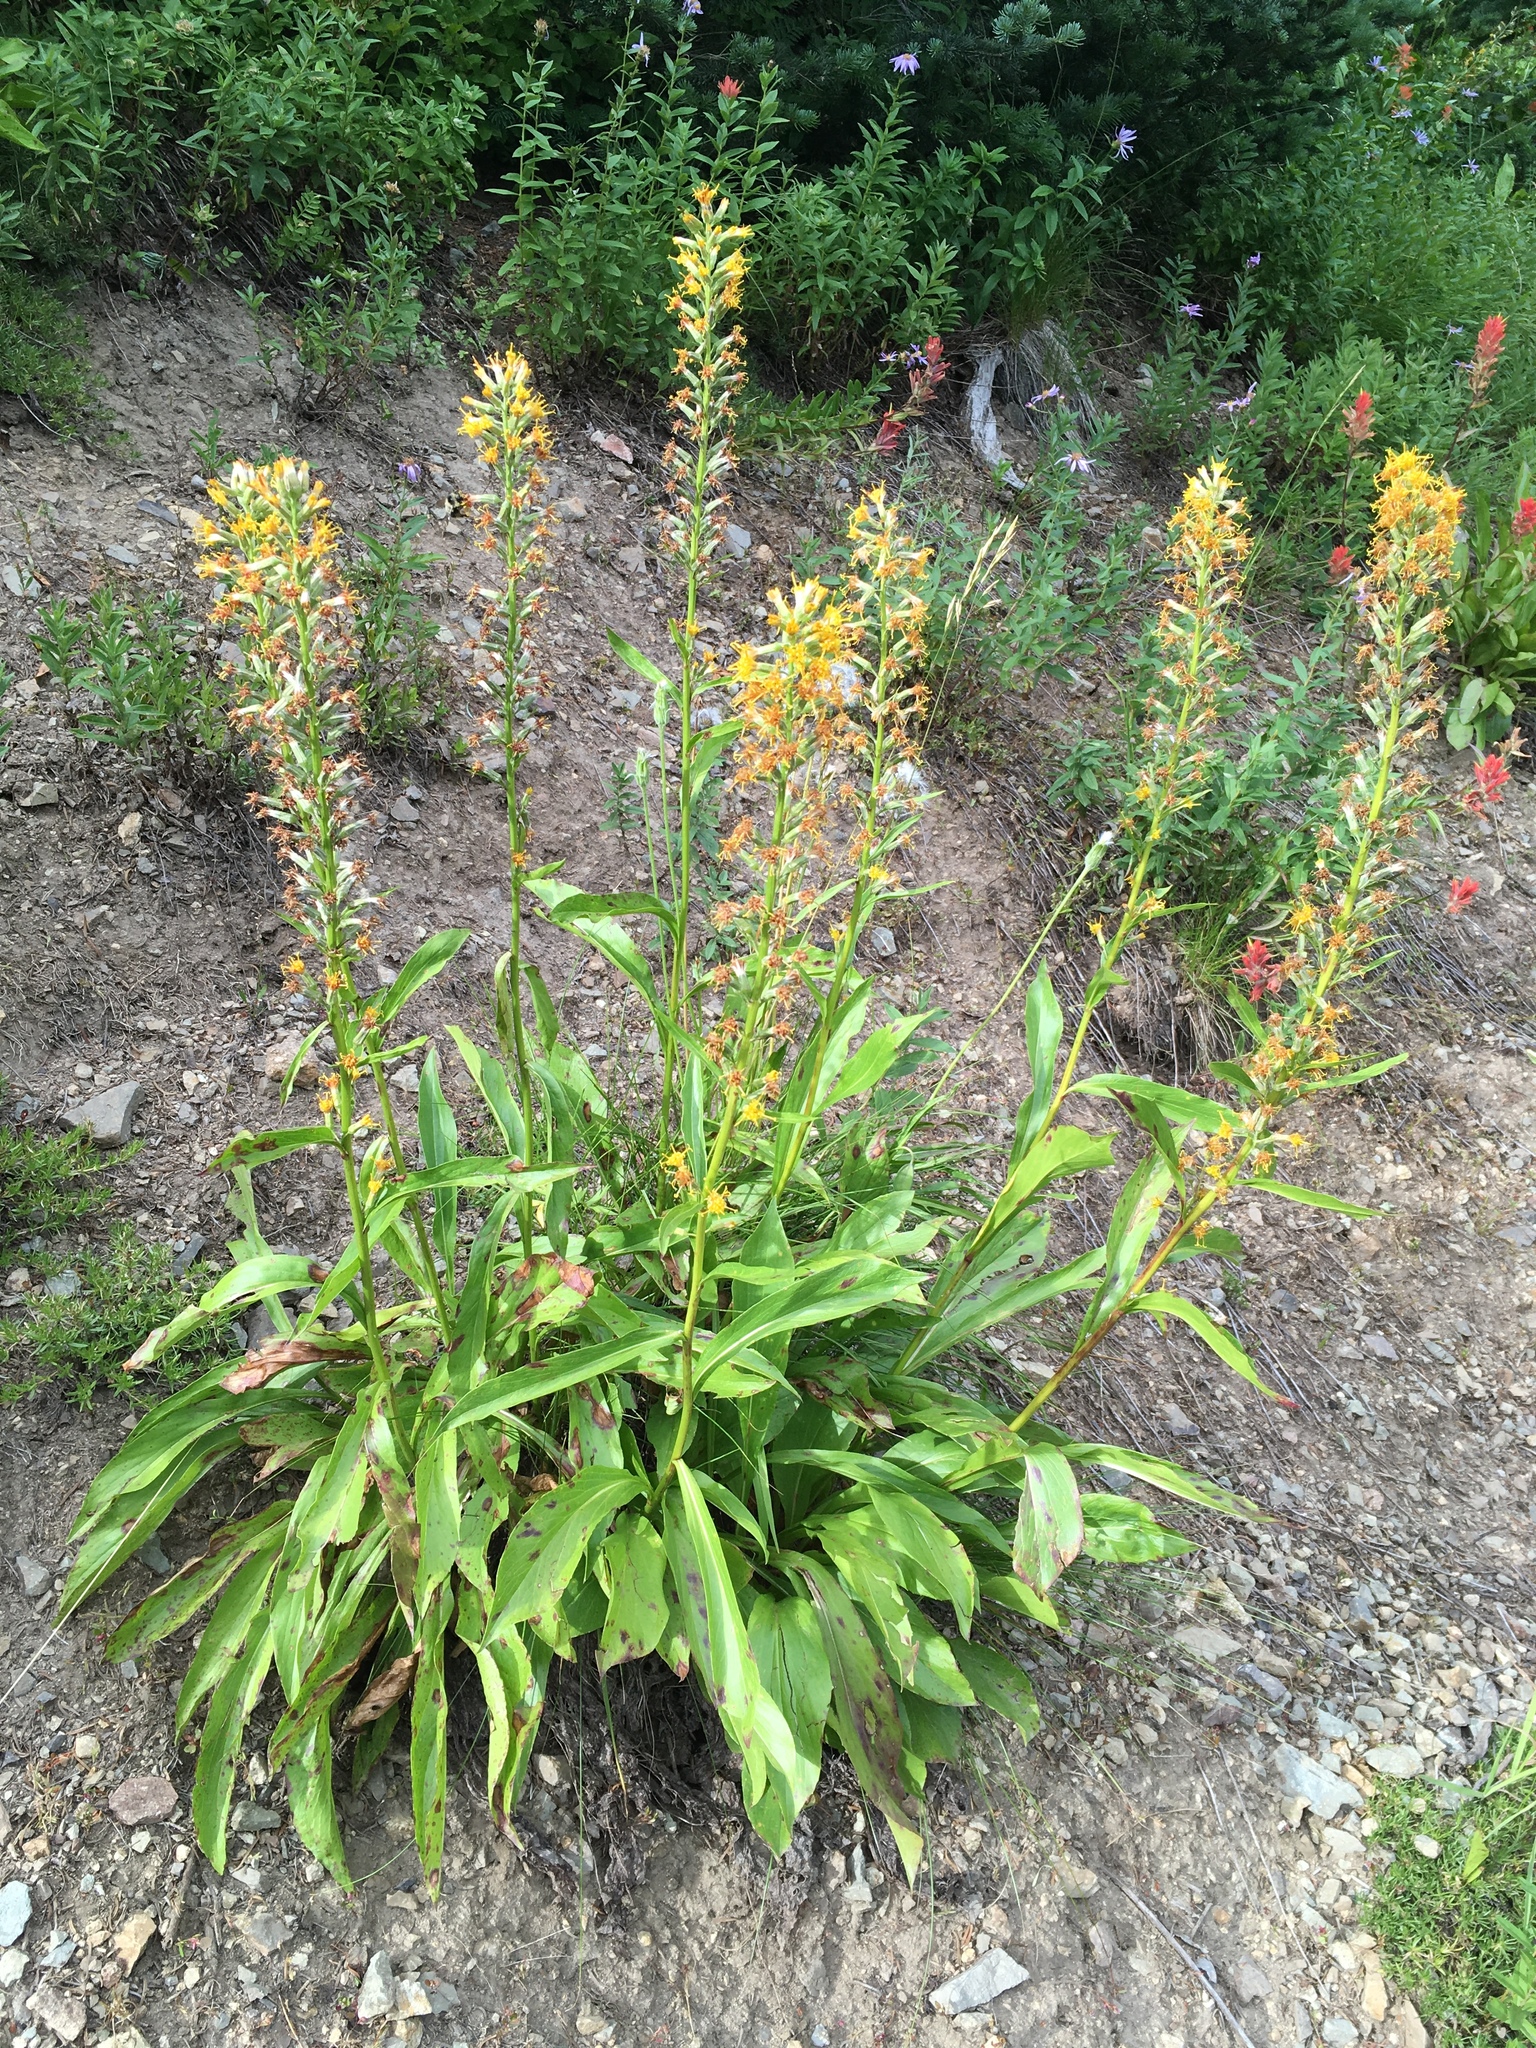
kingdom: Plantae
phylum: Tracheophyta
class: Magnoliopsida
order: Asterales
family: Asteraceae
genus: Rainiera
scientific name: Rainiera stricta
